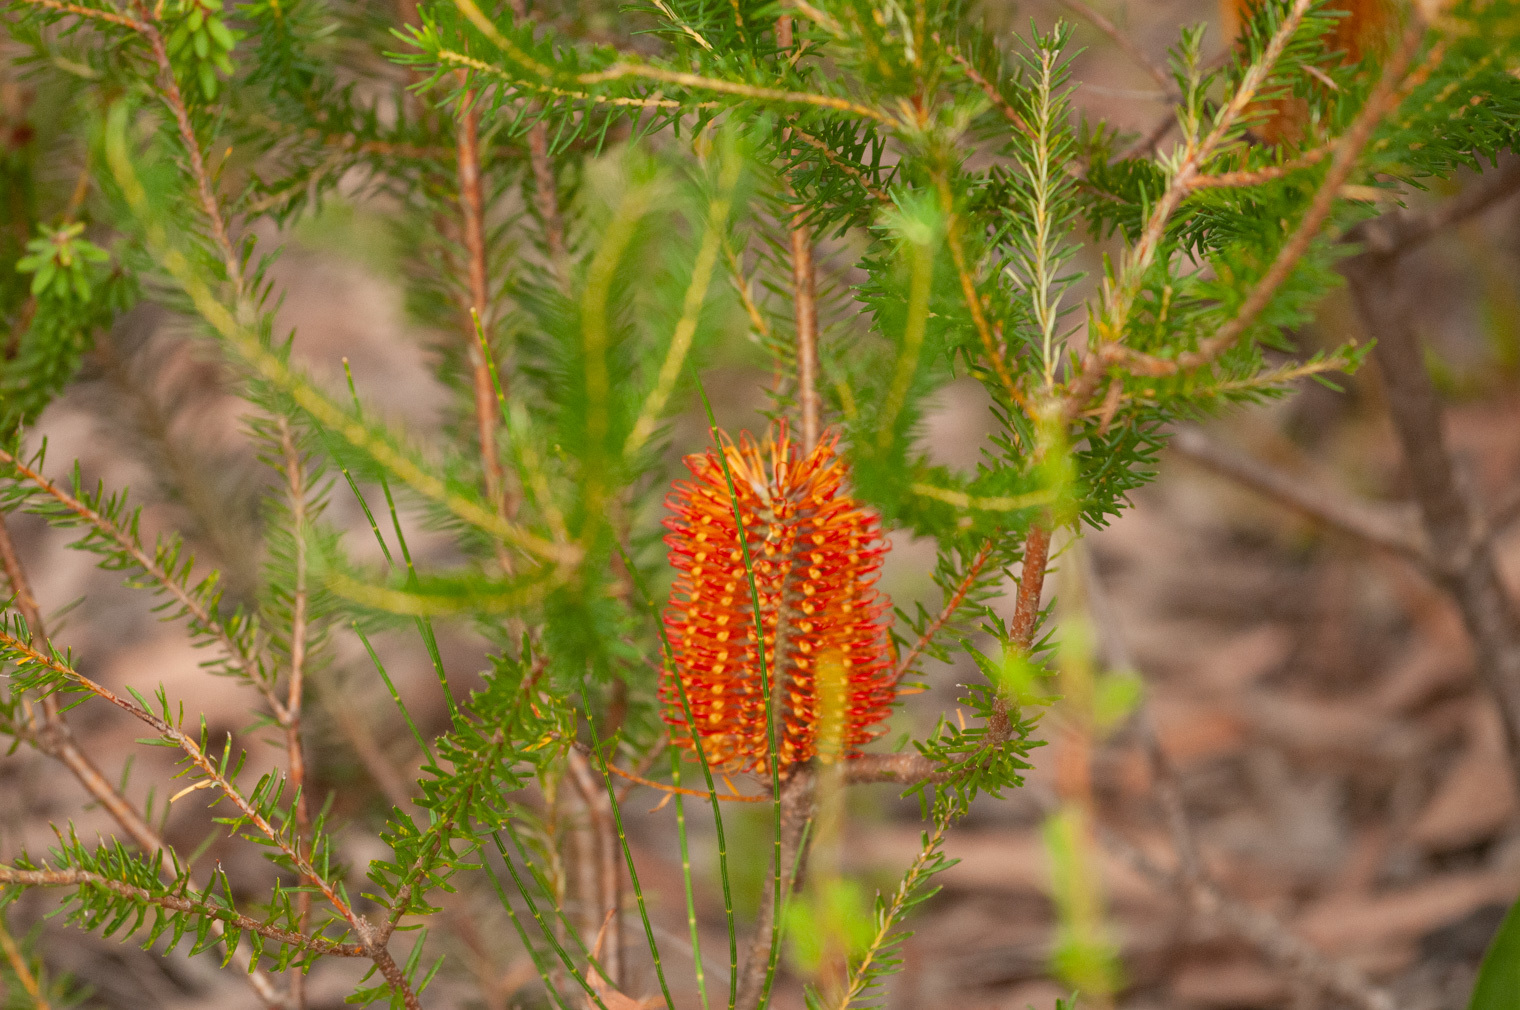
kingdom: Plantae
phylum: Tracheophyta
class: Magnoliopsida
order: Proteales
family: Proteaceae
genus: Banksia
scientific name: Banksia ericifolia
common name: Heath-leaf banksia
